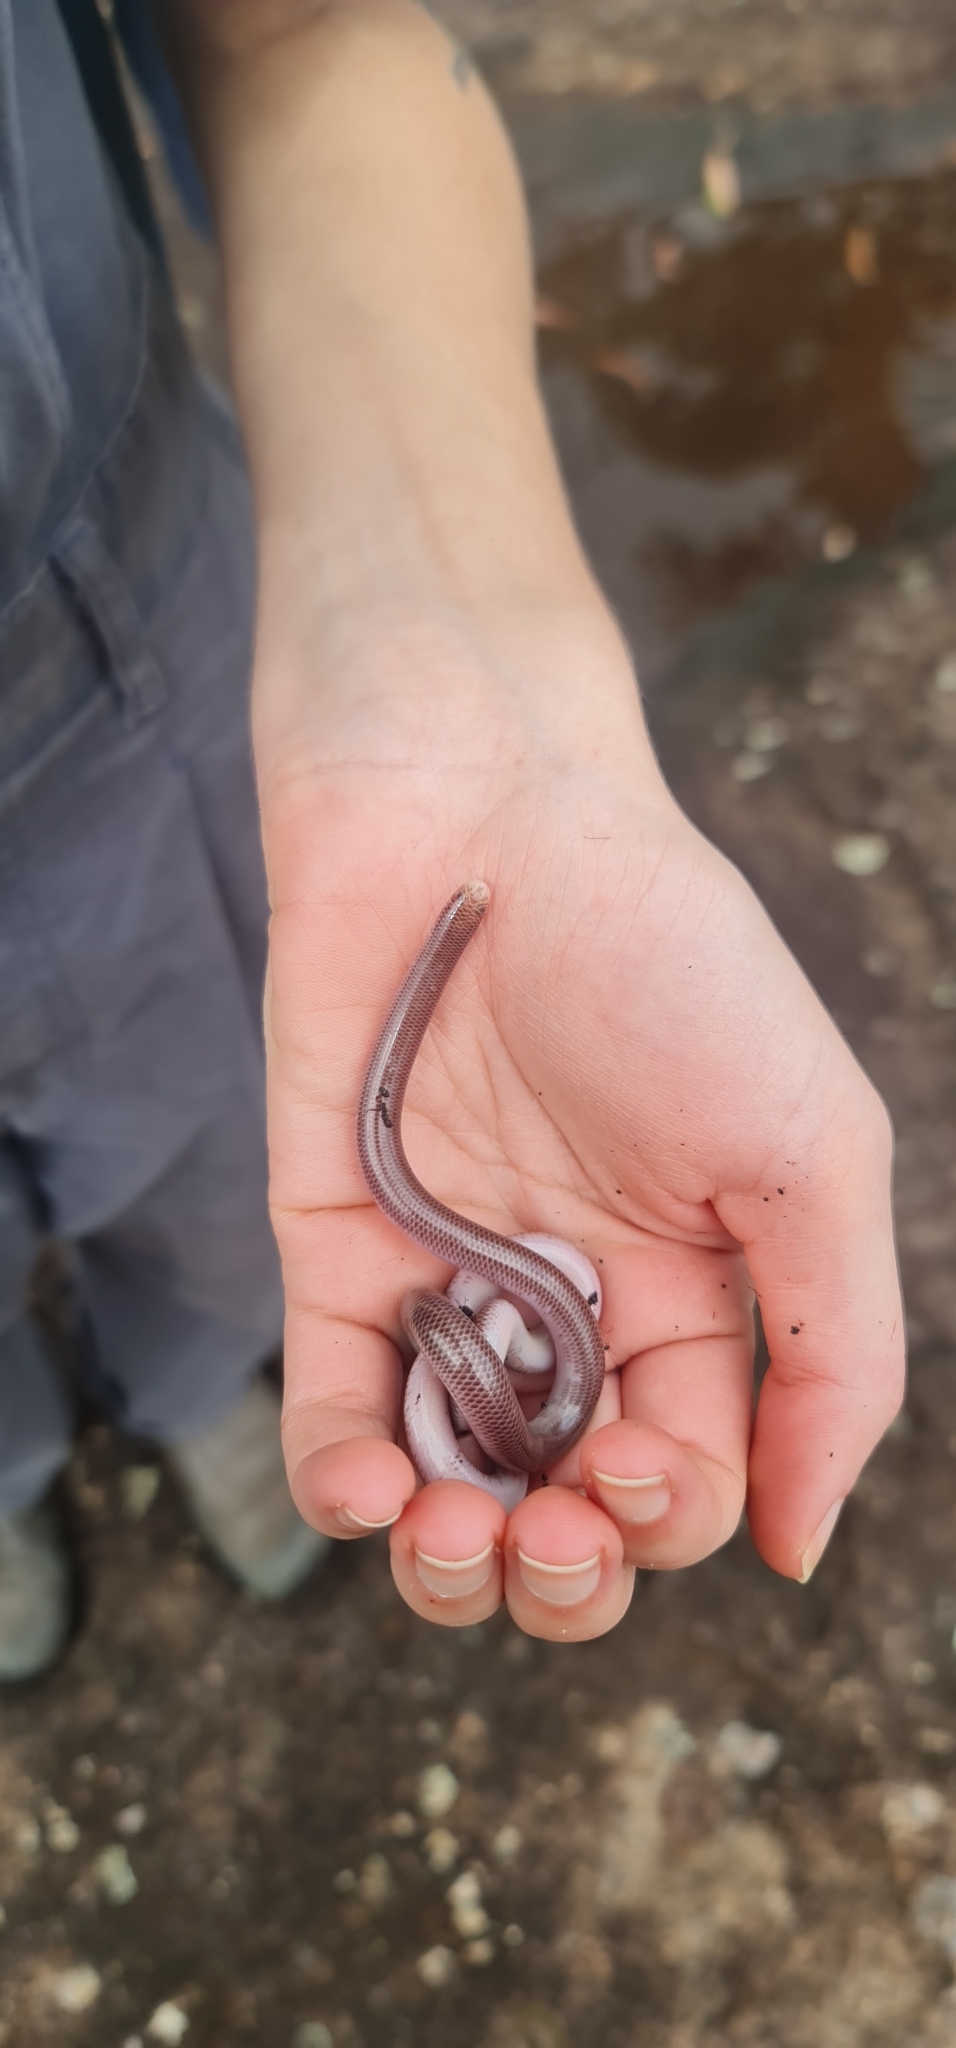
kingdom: Animalia
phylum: Chordata
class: Squamata
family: Typhlopidae
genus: Anilios
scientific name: Anilios nigrescens
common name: Blackish blind snake
